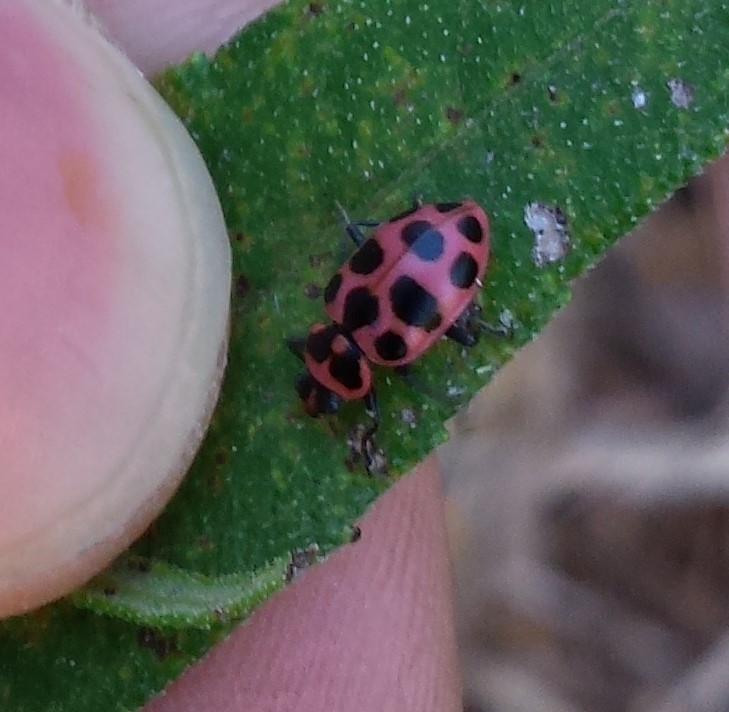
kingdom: Animalia
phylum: Arthropoda
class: Insecta
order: Coleoptera
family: Coccinellidae
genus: Coleomegilla
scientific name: Coleomegilla maculata
